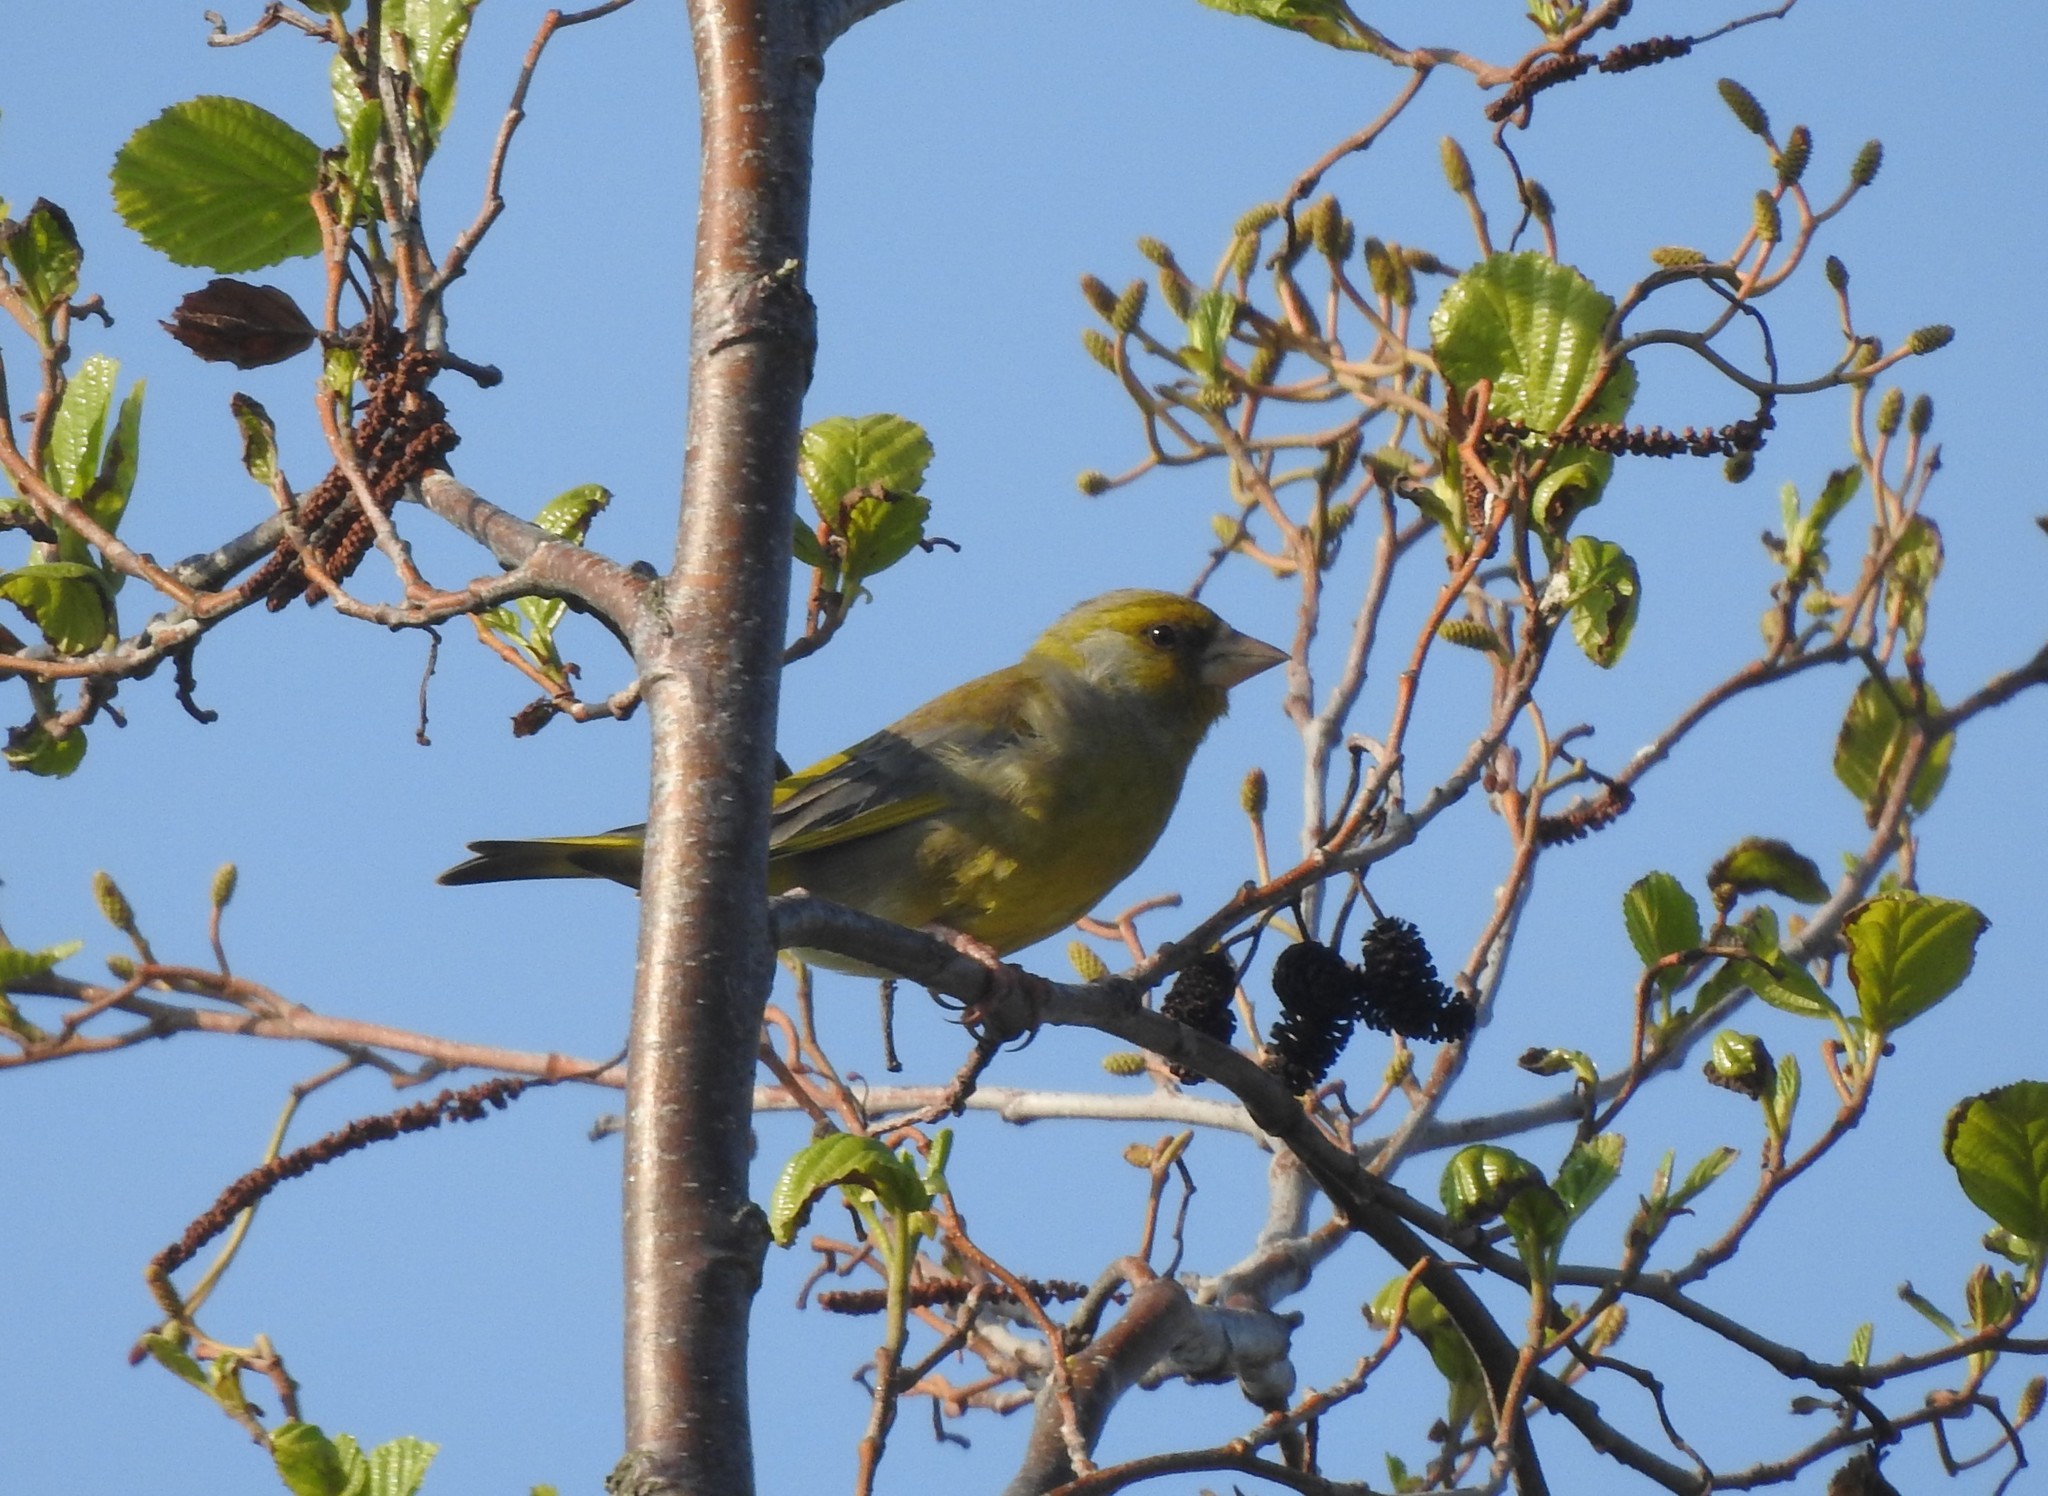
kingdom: Plantae
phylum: Tracheophyta
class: Liliopsida
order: Poales
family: Poaceae
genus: Chloris
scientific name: Chloris chloris
